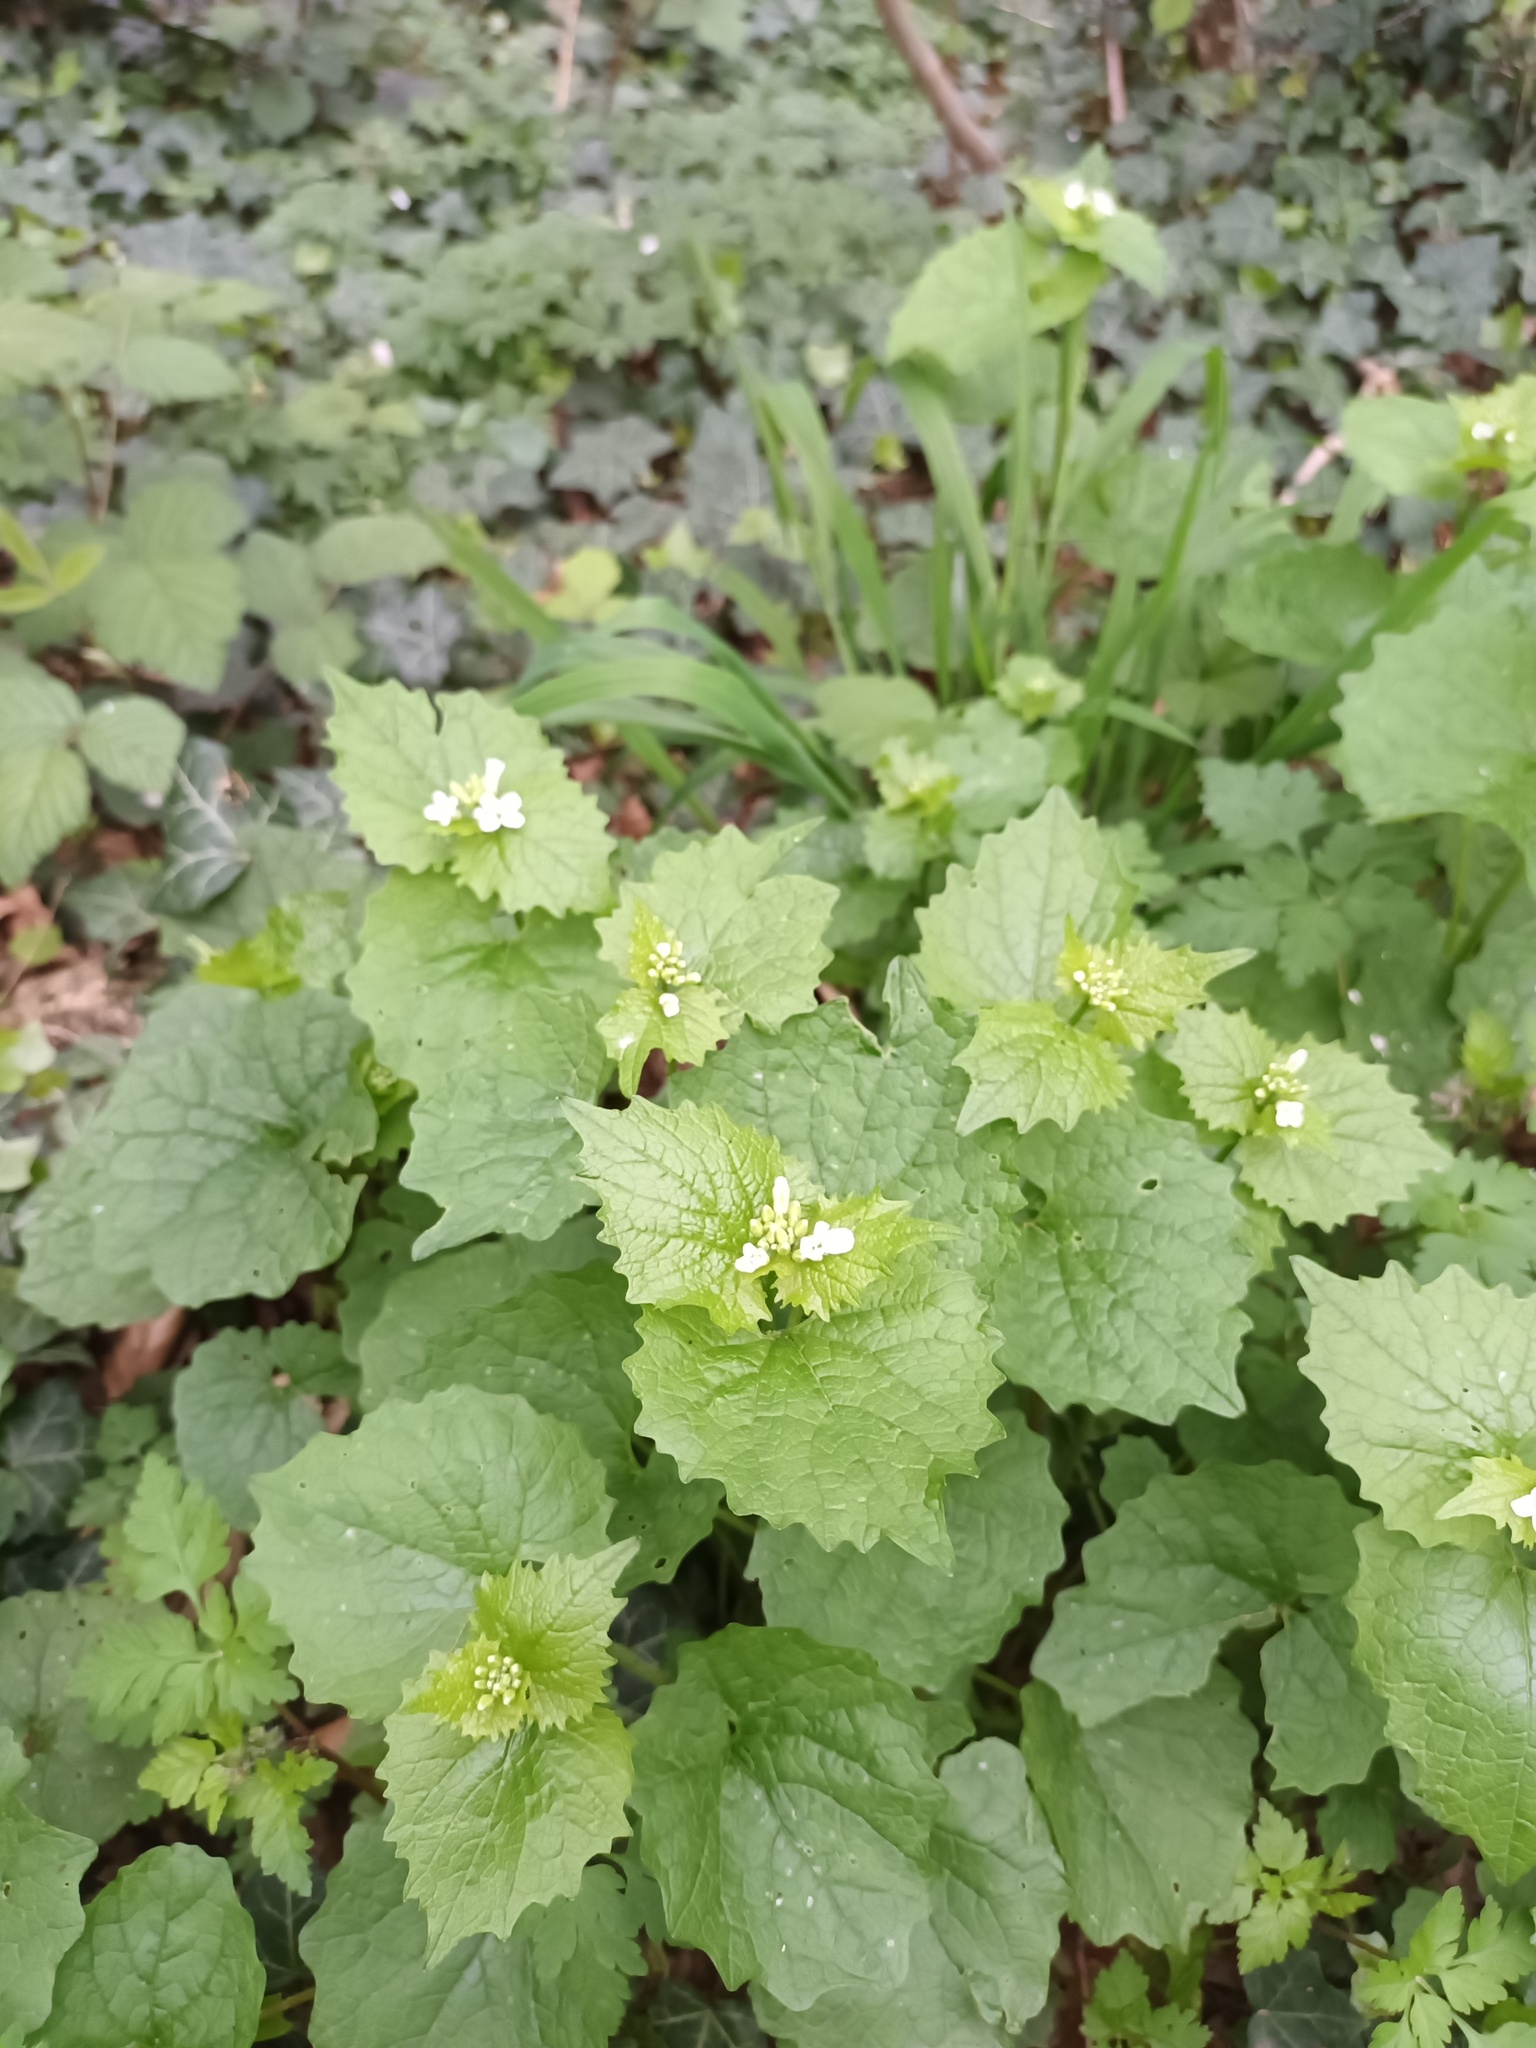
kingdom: Plantae
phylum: Tracheophyta
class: Magnoliopsida
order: Brassicales
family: Brassicaceae
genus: Alliaria
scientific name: Alliaria petiolata
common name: Garlic mustard
